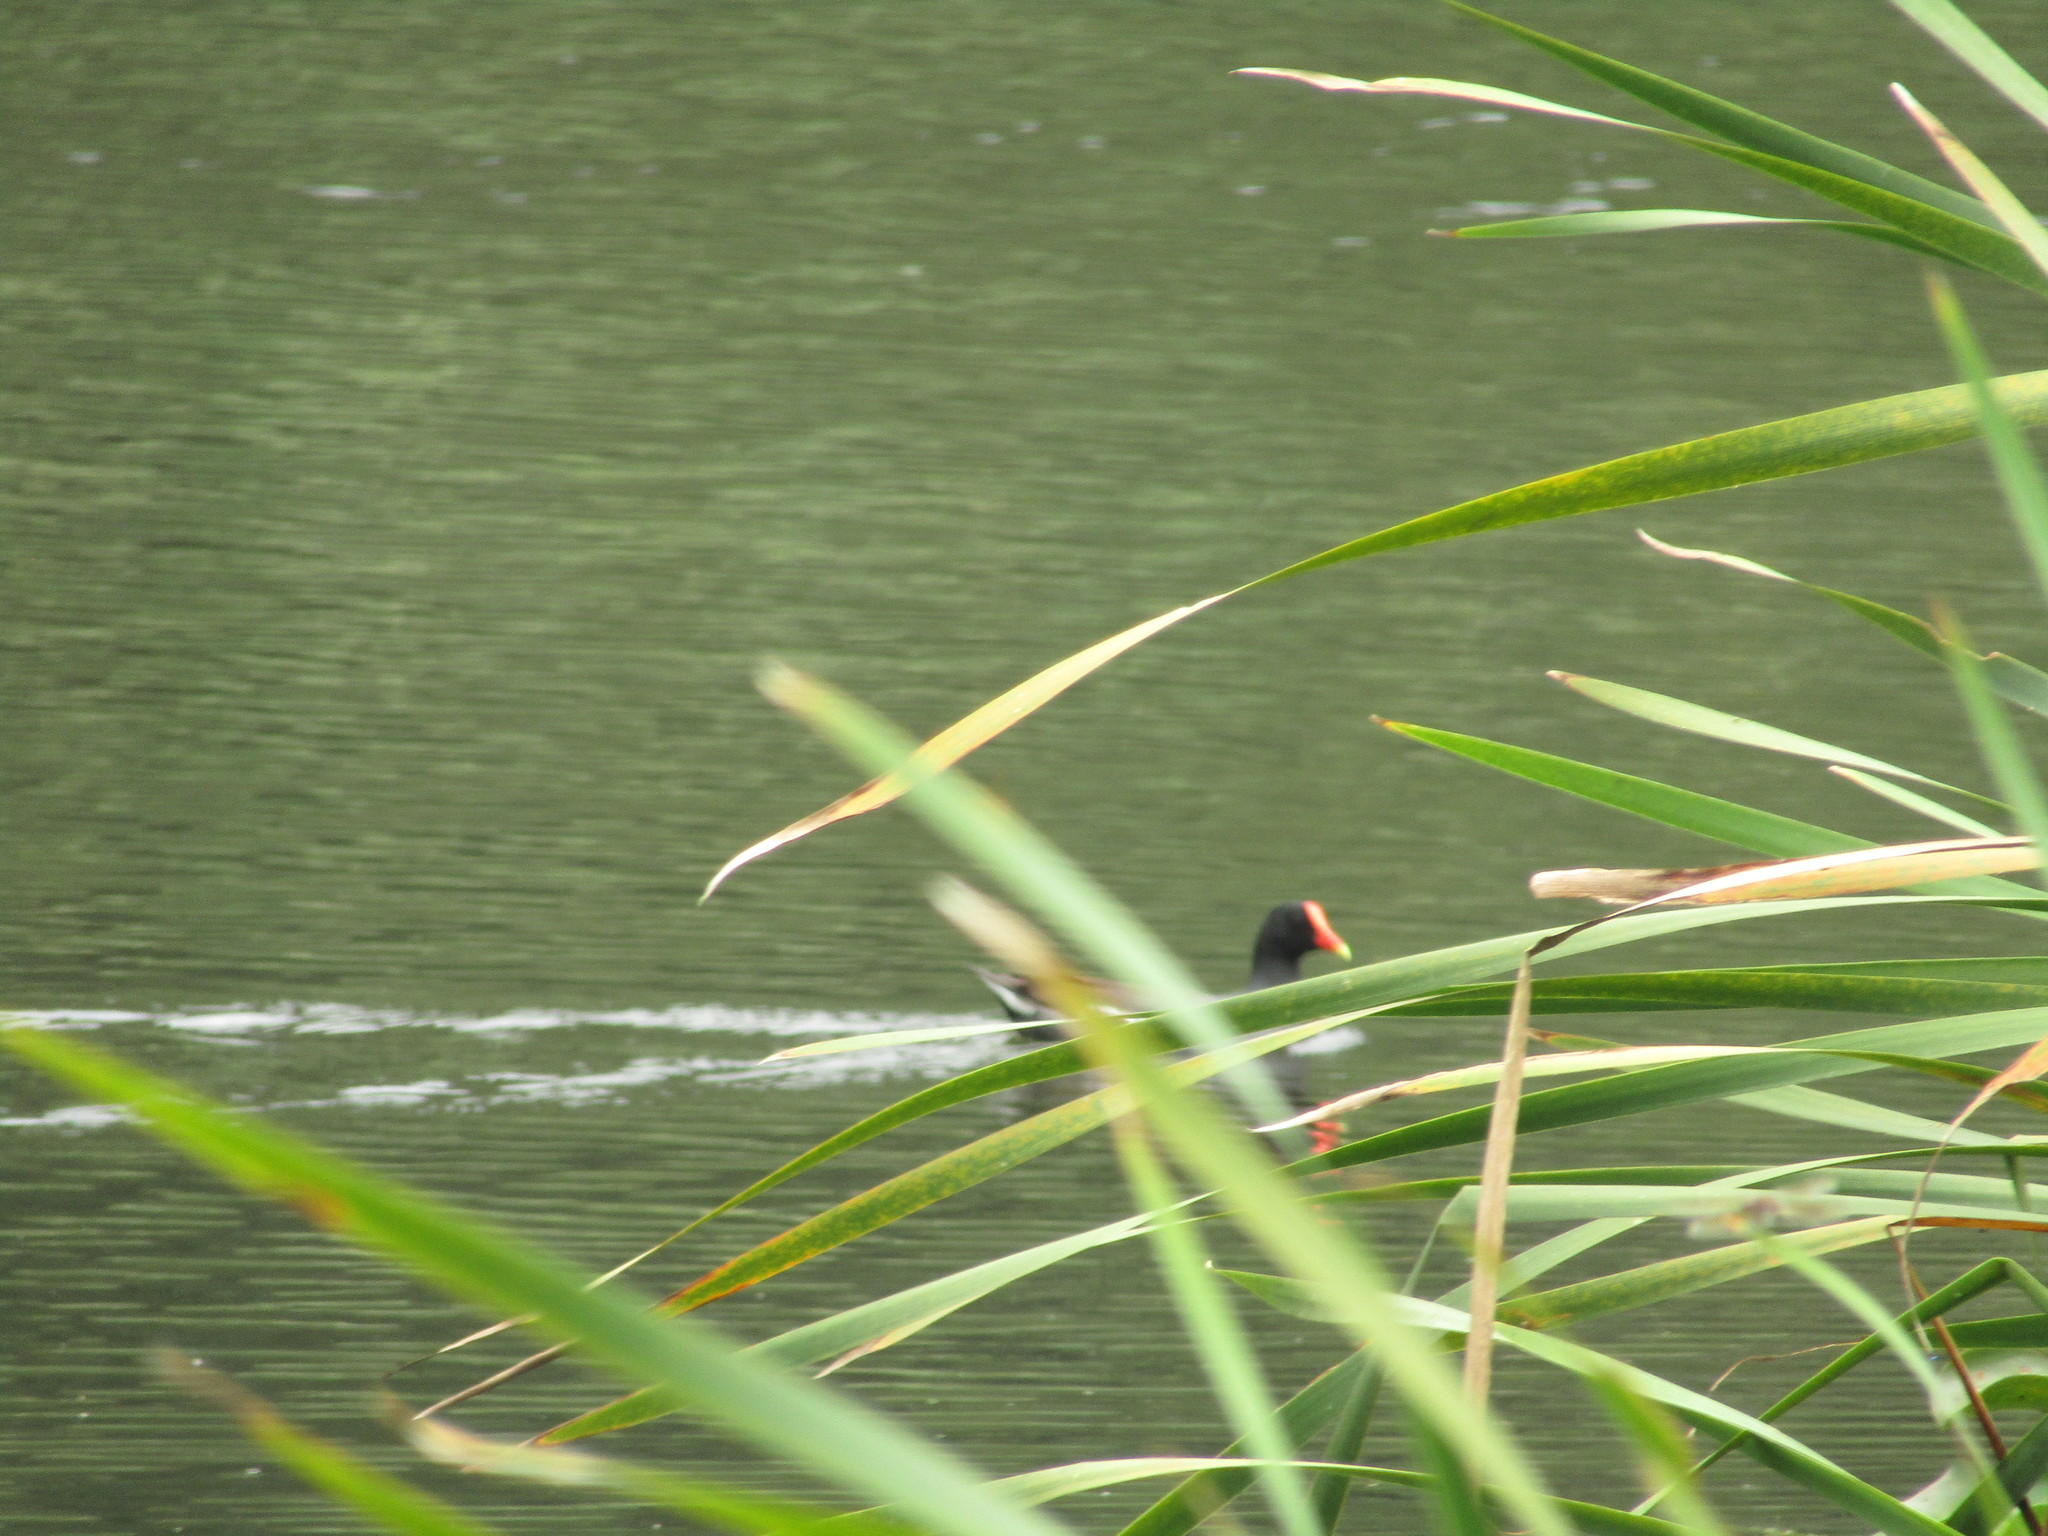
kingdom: Animalia
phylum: Chordata
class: Aves
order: Gruiformes
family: Rallidae
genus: Gallinula
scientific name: Gallinula chloropus
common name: Common moorhen
